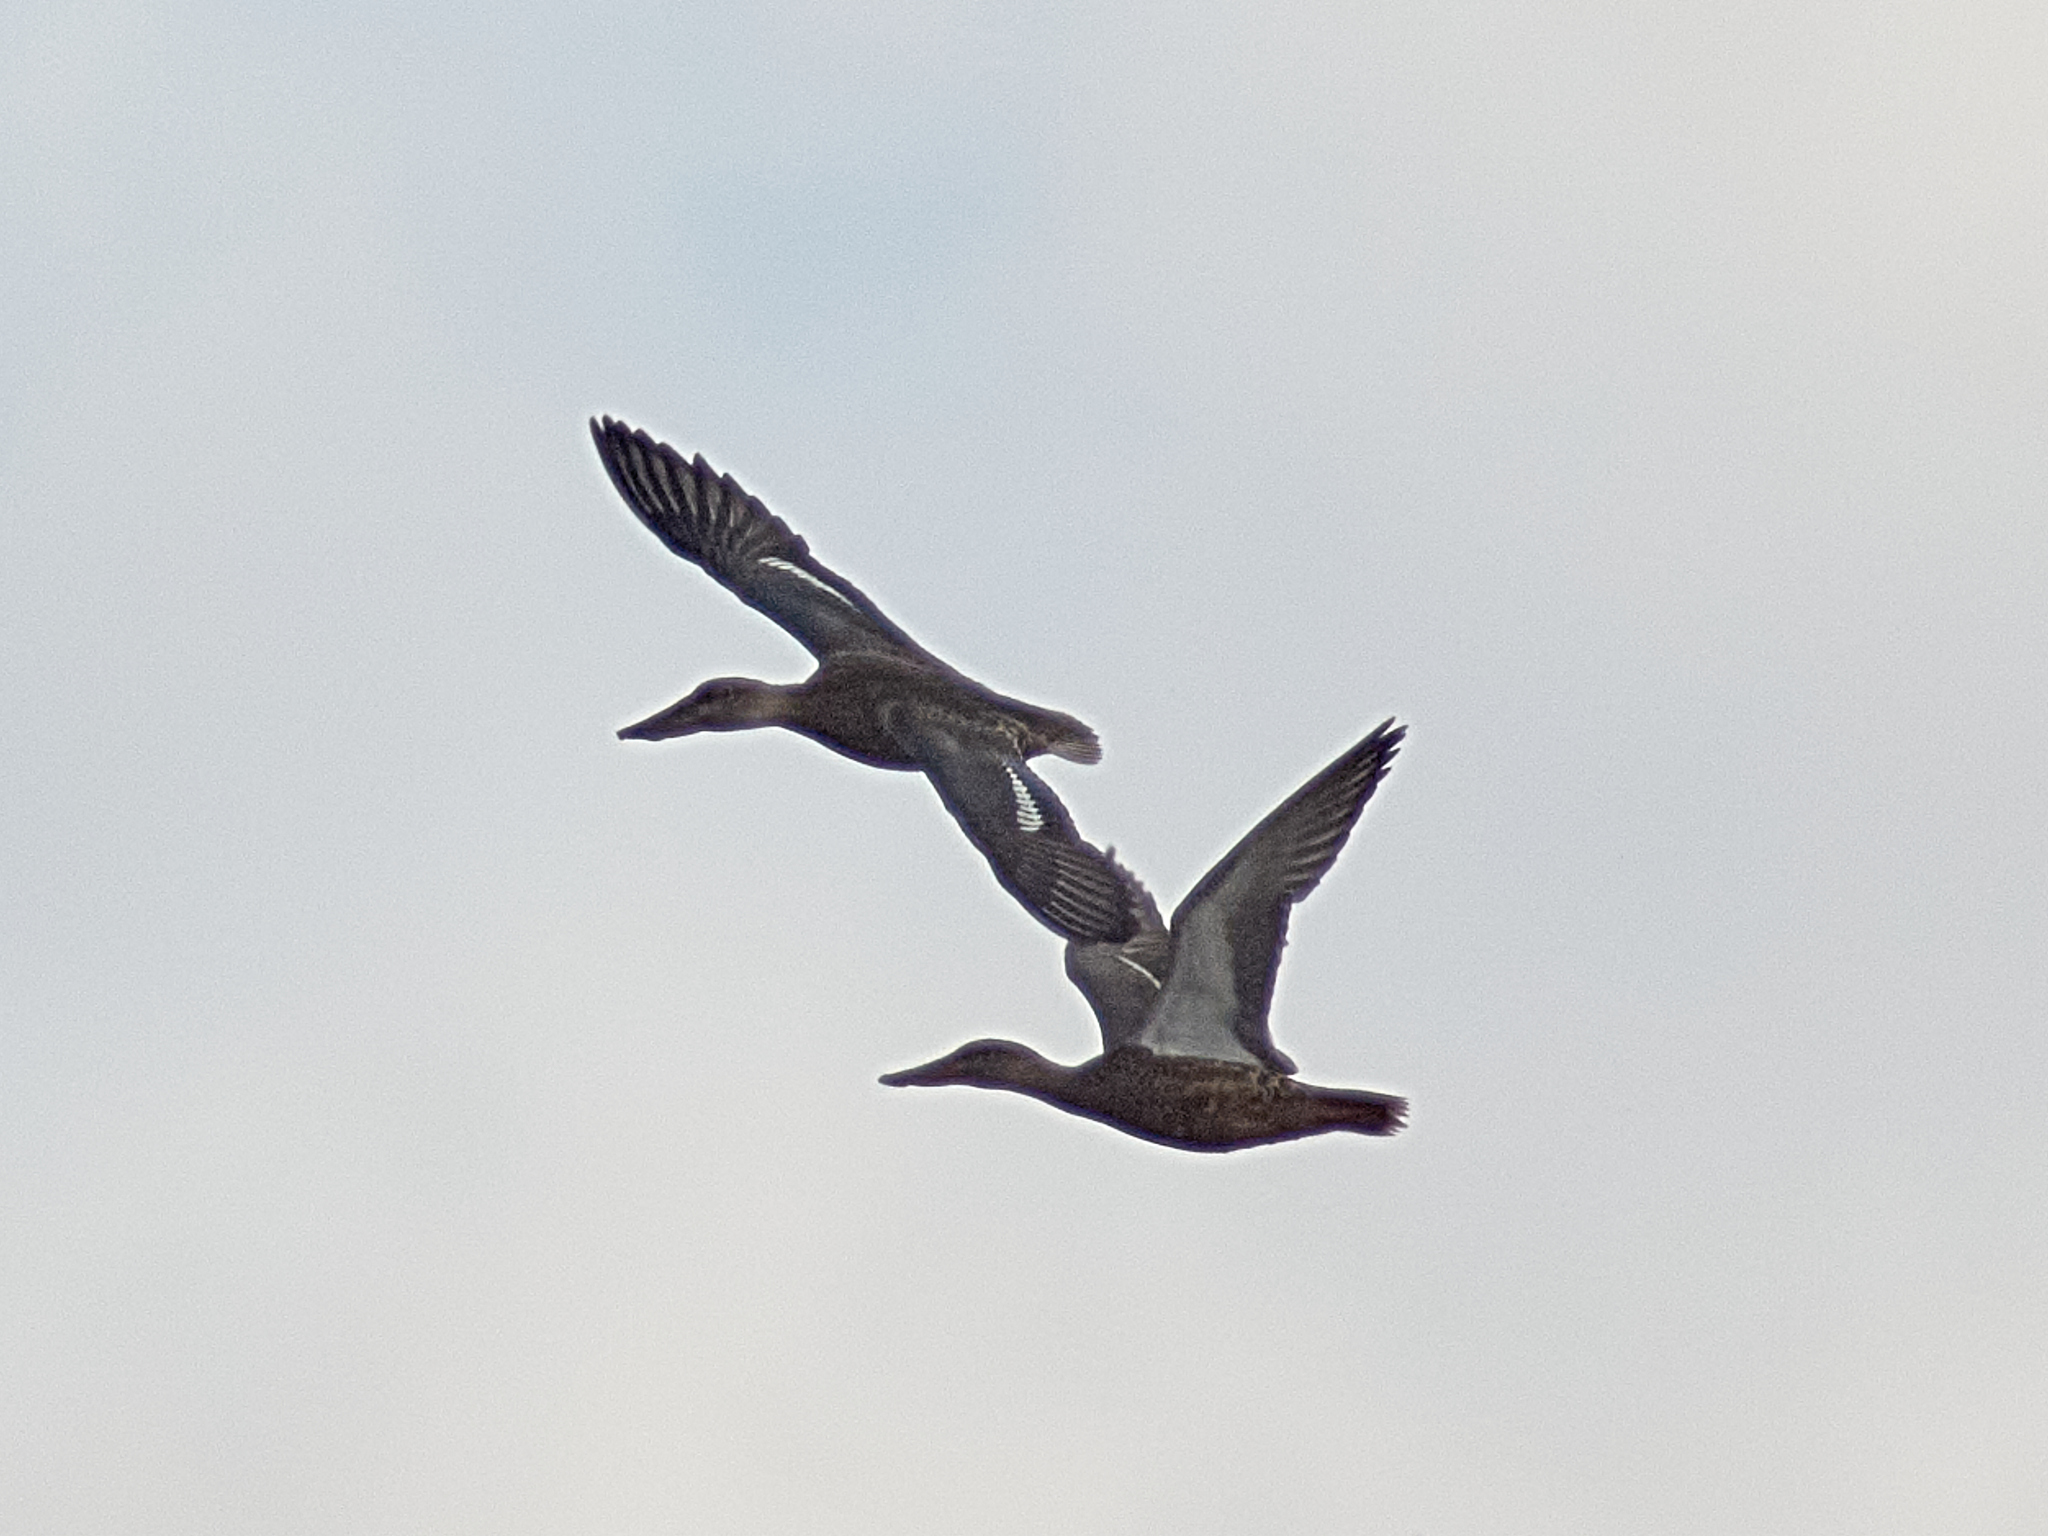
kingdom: Animalia
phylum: Chordata
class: Aves
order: Anseriformes
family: Anatidae
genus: Spatula
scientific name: Spatula clypeata
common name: Northern shoveler
